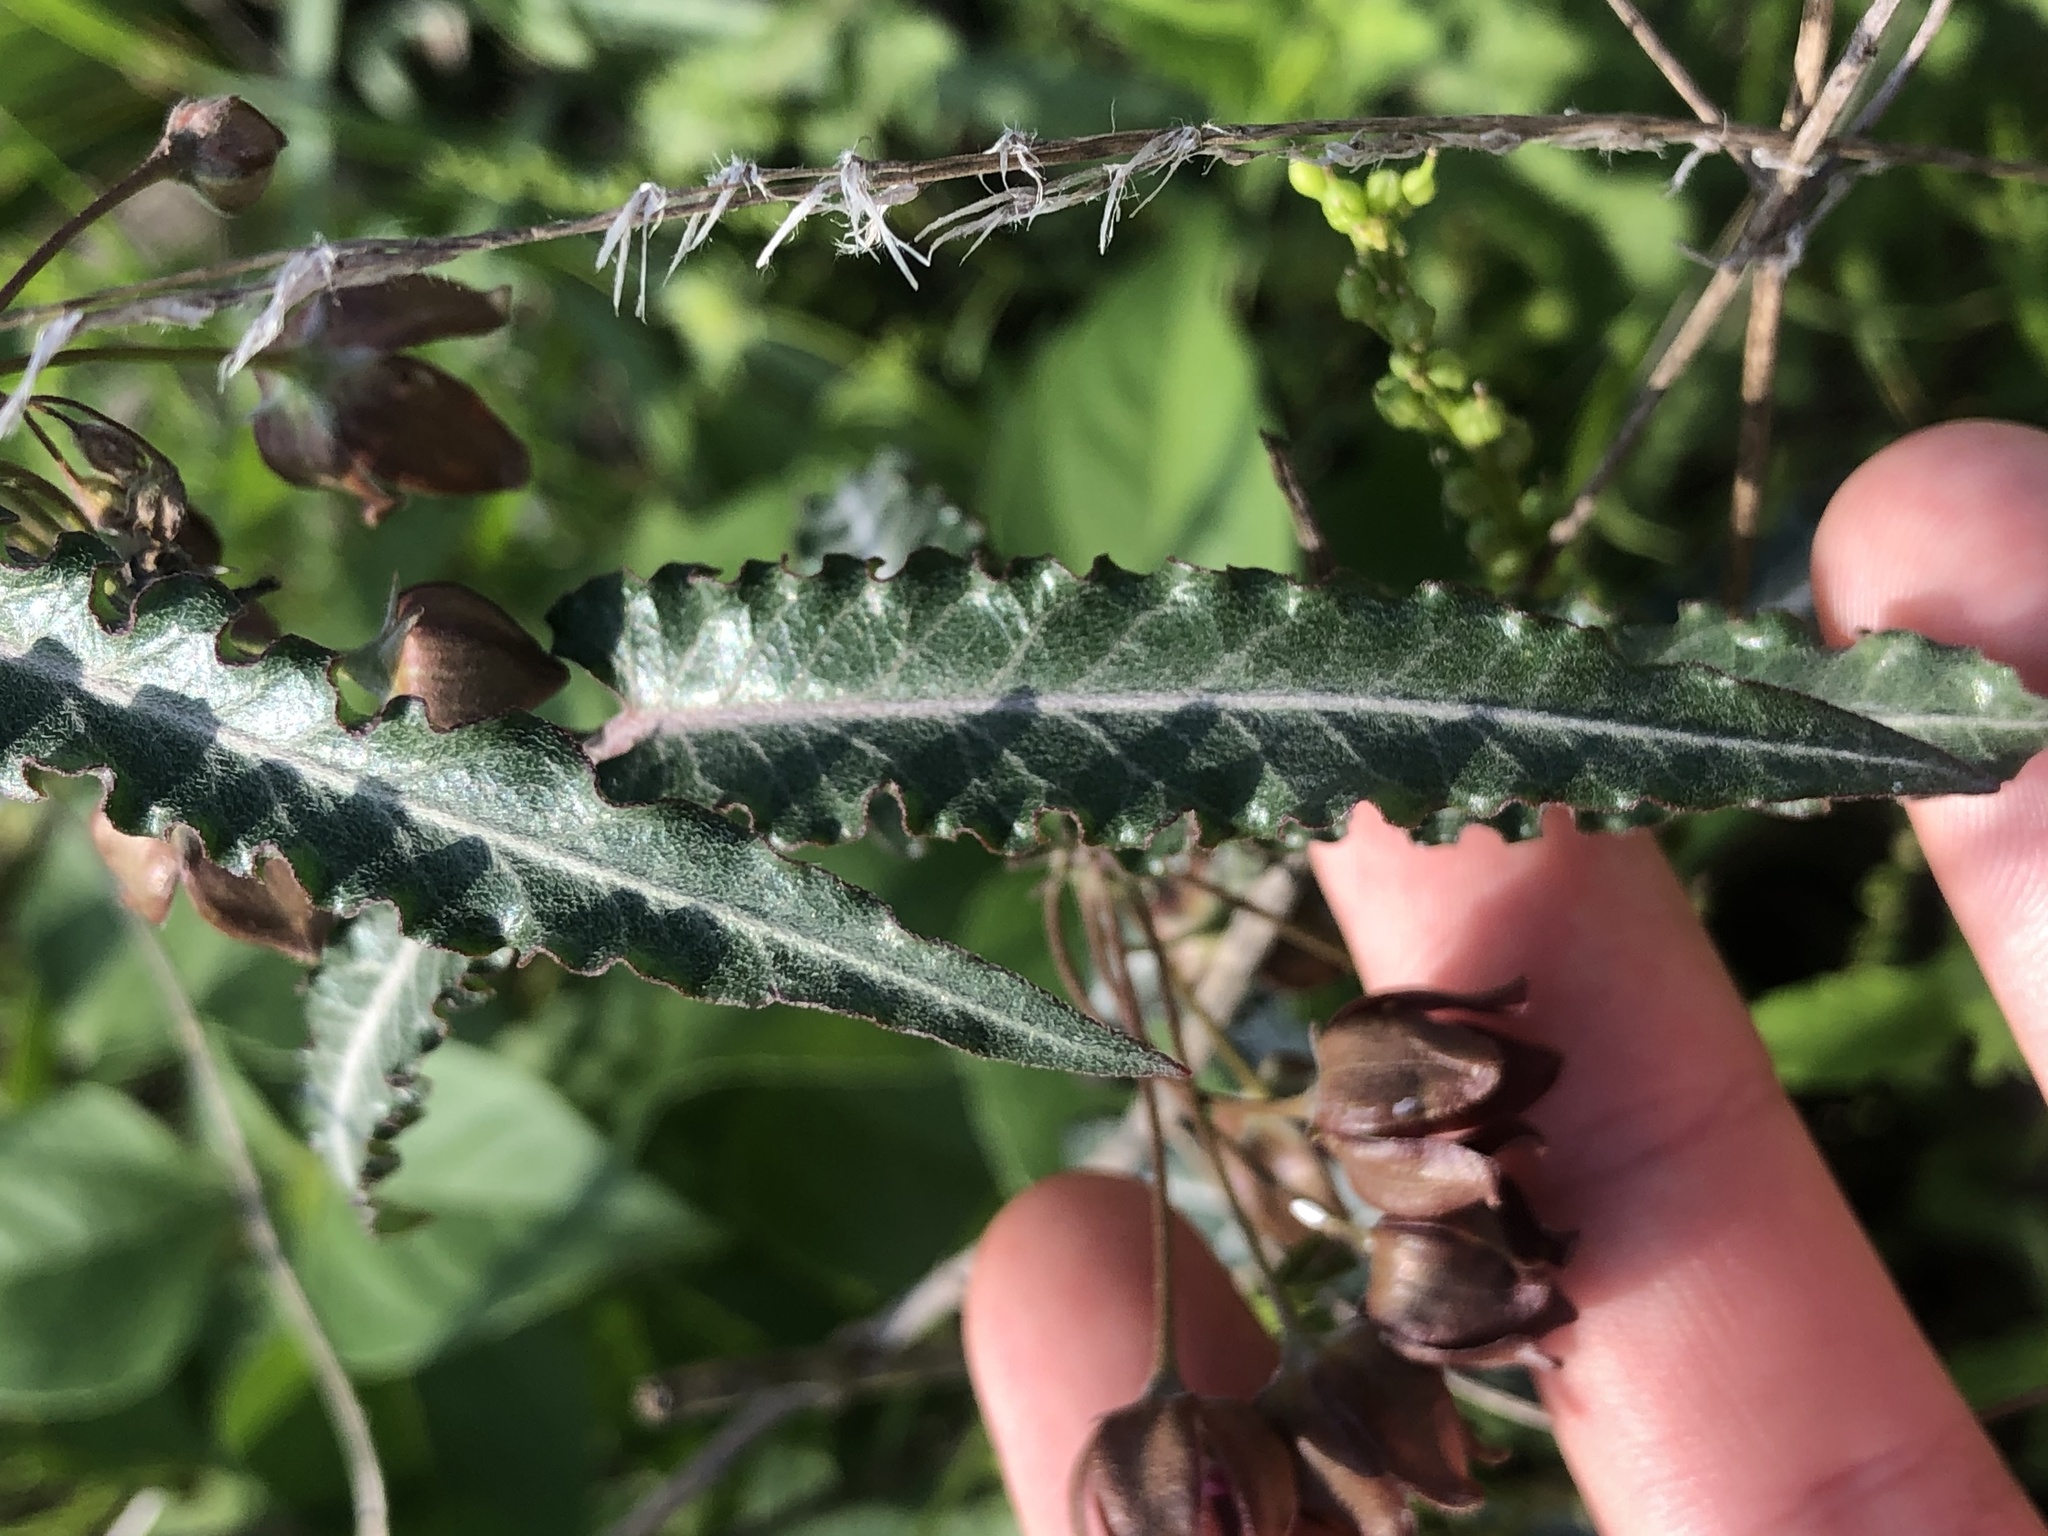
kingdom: Plantae
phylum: Tracheophyta
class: Magnoliopsida
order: Gentianales
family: Apocynaceae
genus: Funastrum
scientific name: Funastrum crispum
